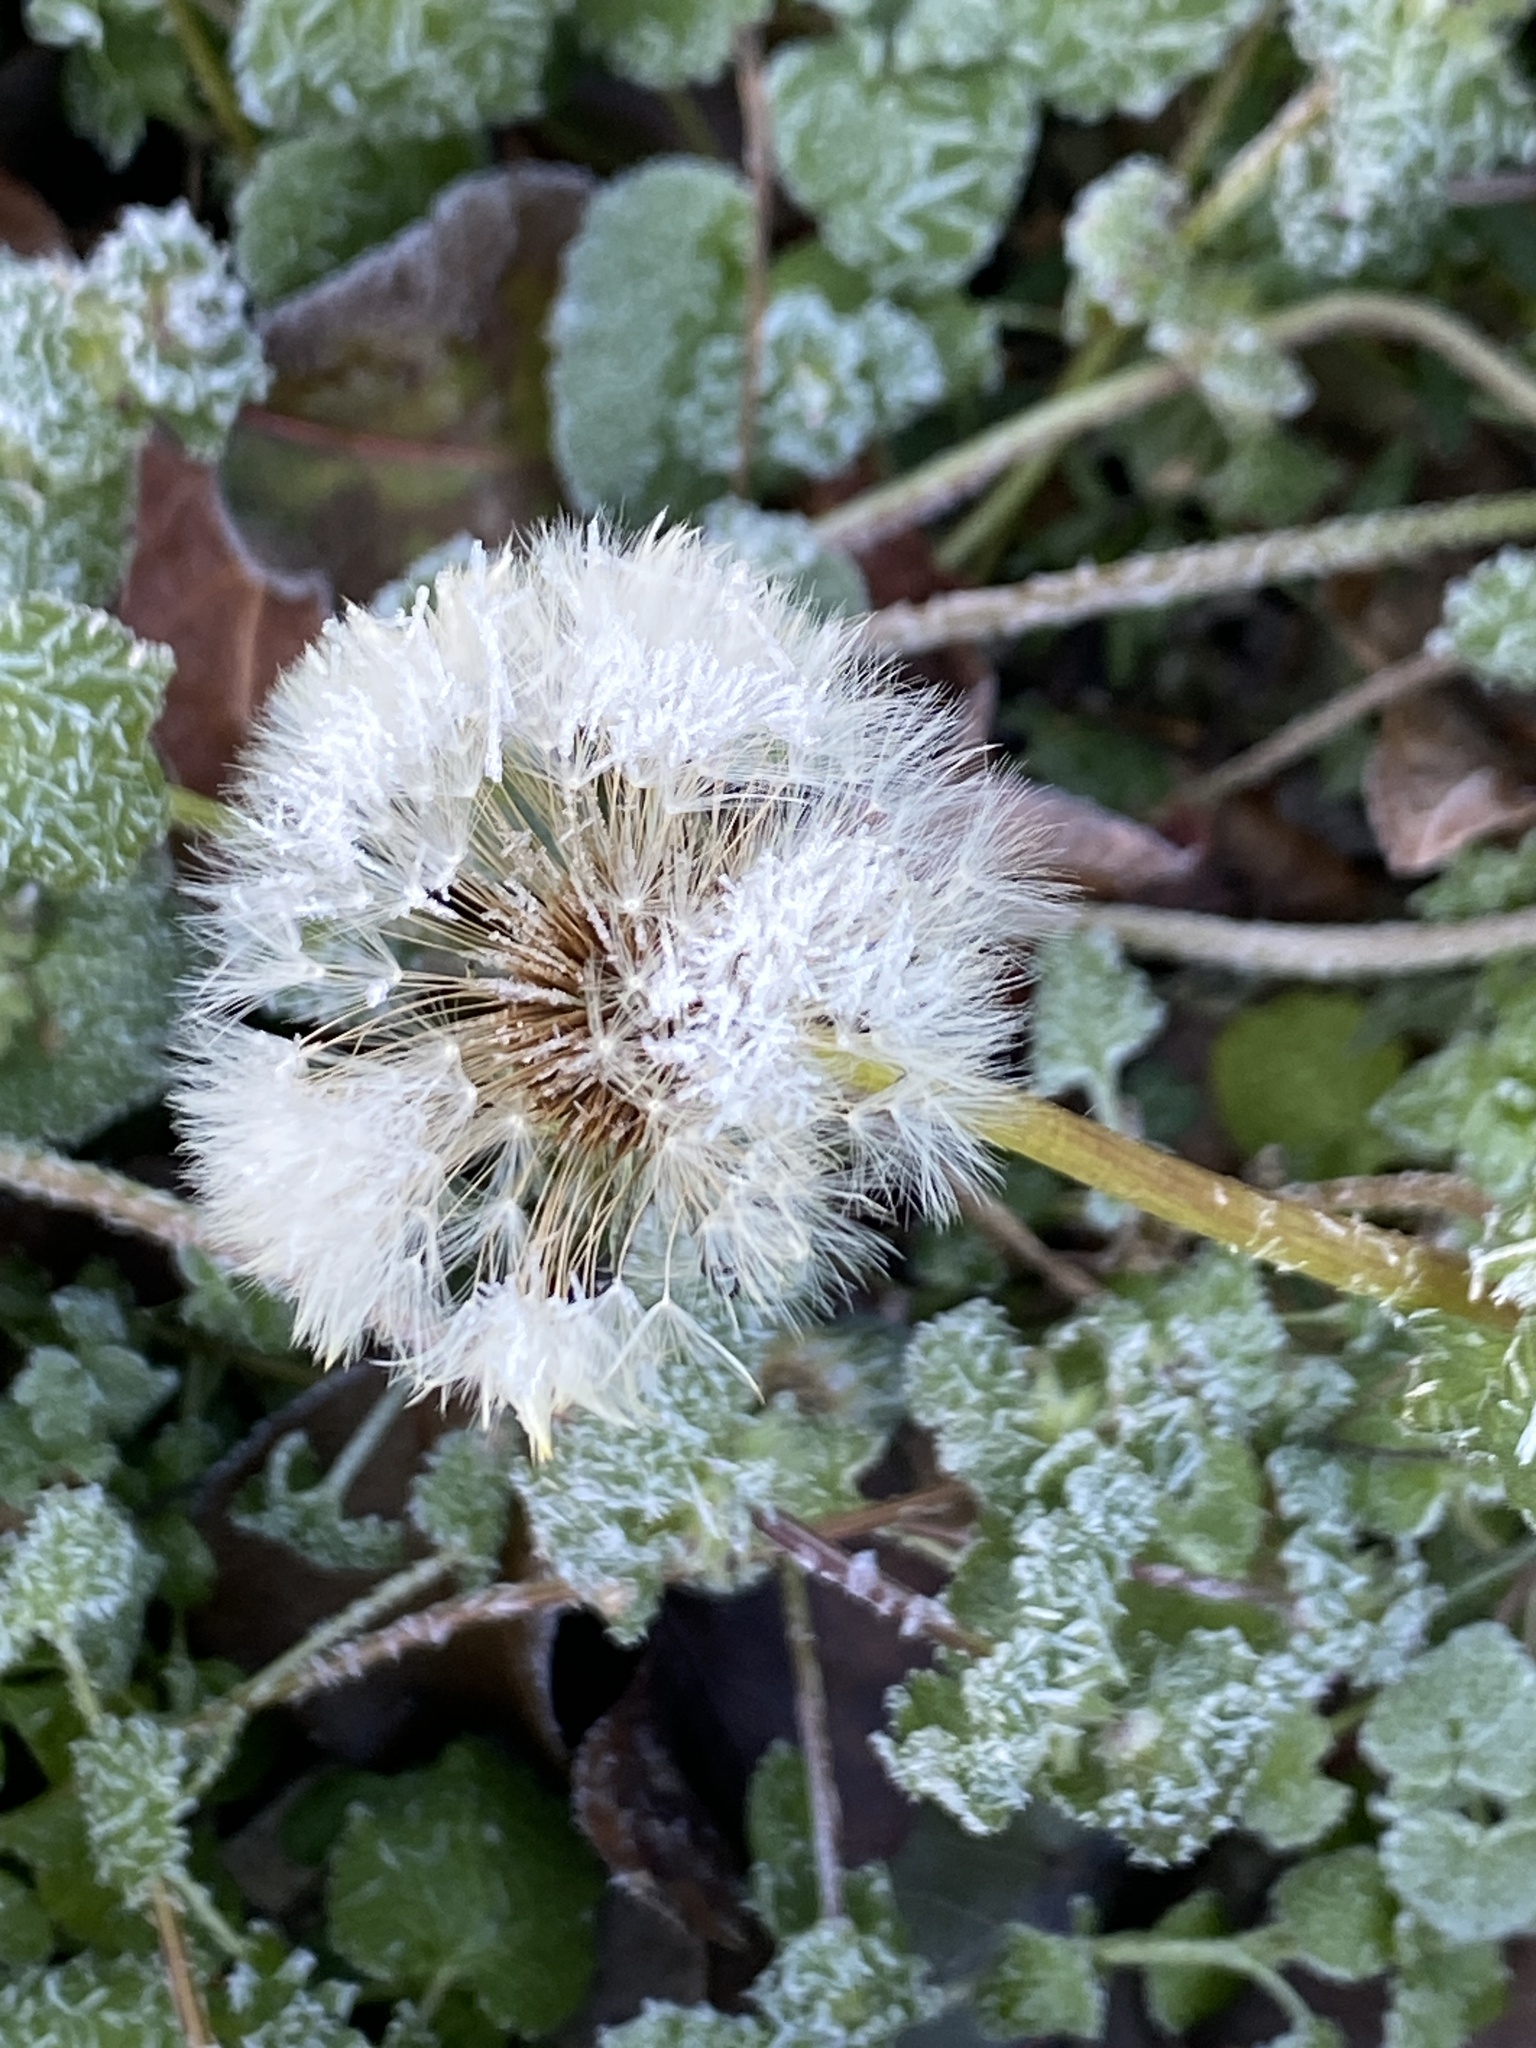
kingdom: Plantae
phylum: Tracheophyta
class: Magnoliopsida
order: Asterales
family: Asteraceae
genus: Taraxacum
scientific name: Taraxacum officinale
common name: Common dandelion
